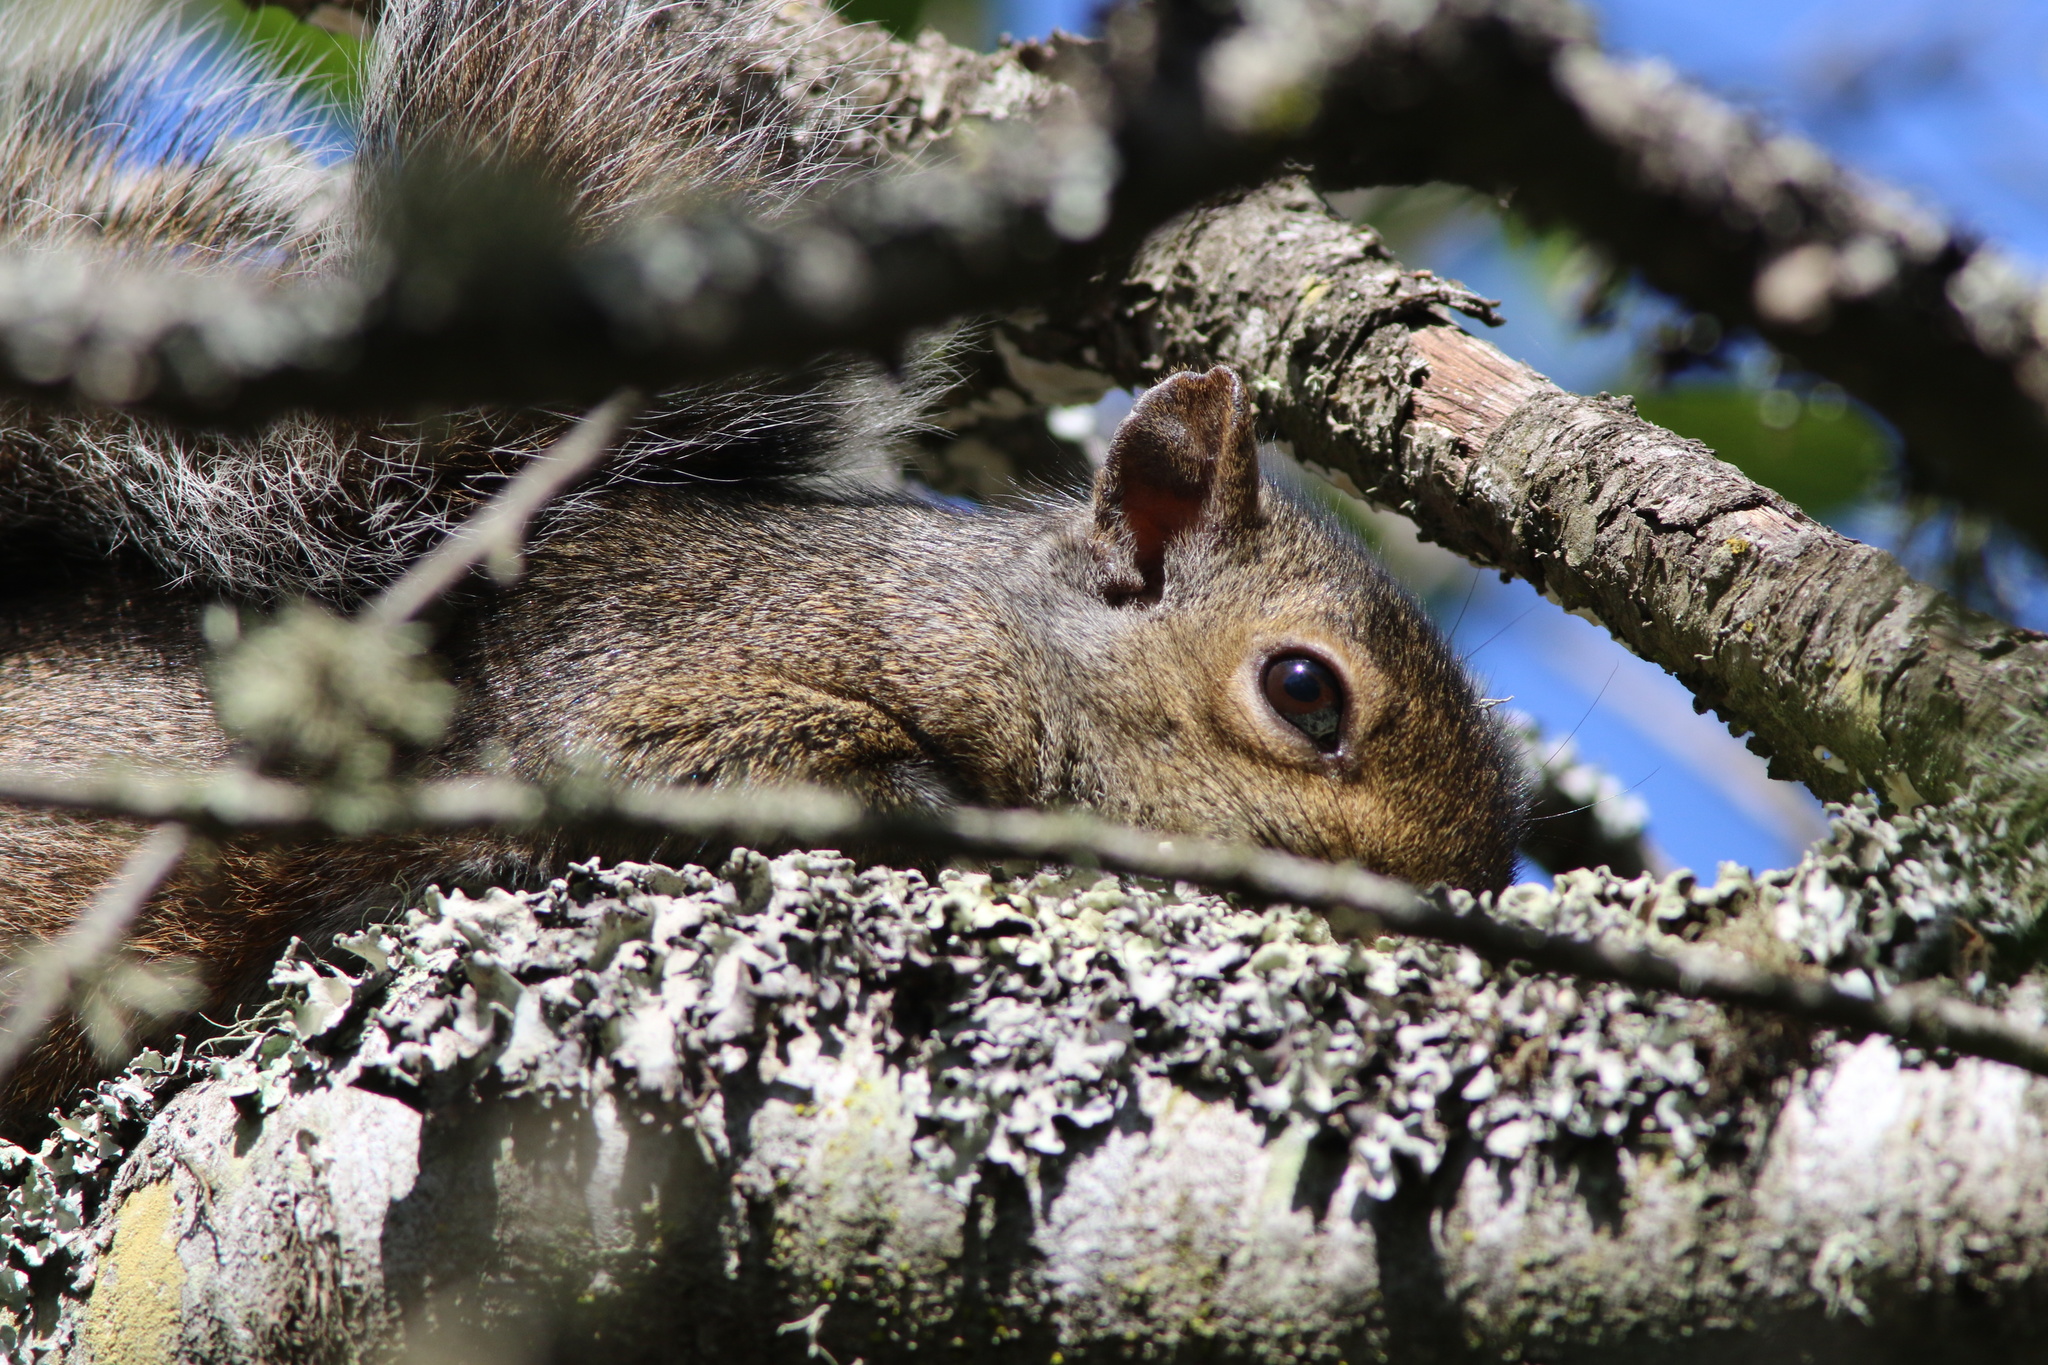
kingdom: Animalia
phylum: Chordata
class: Mammalia
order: Rodentia
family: Sciuridae
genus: Sciurus
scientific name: Sciurus carolinensis
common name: Eastern gray squirrel
